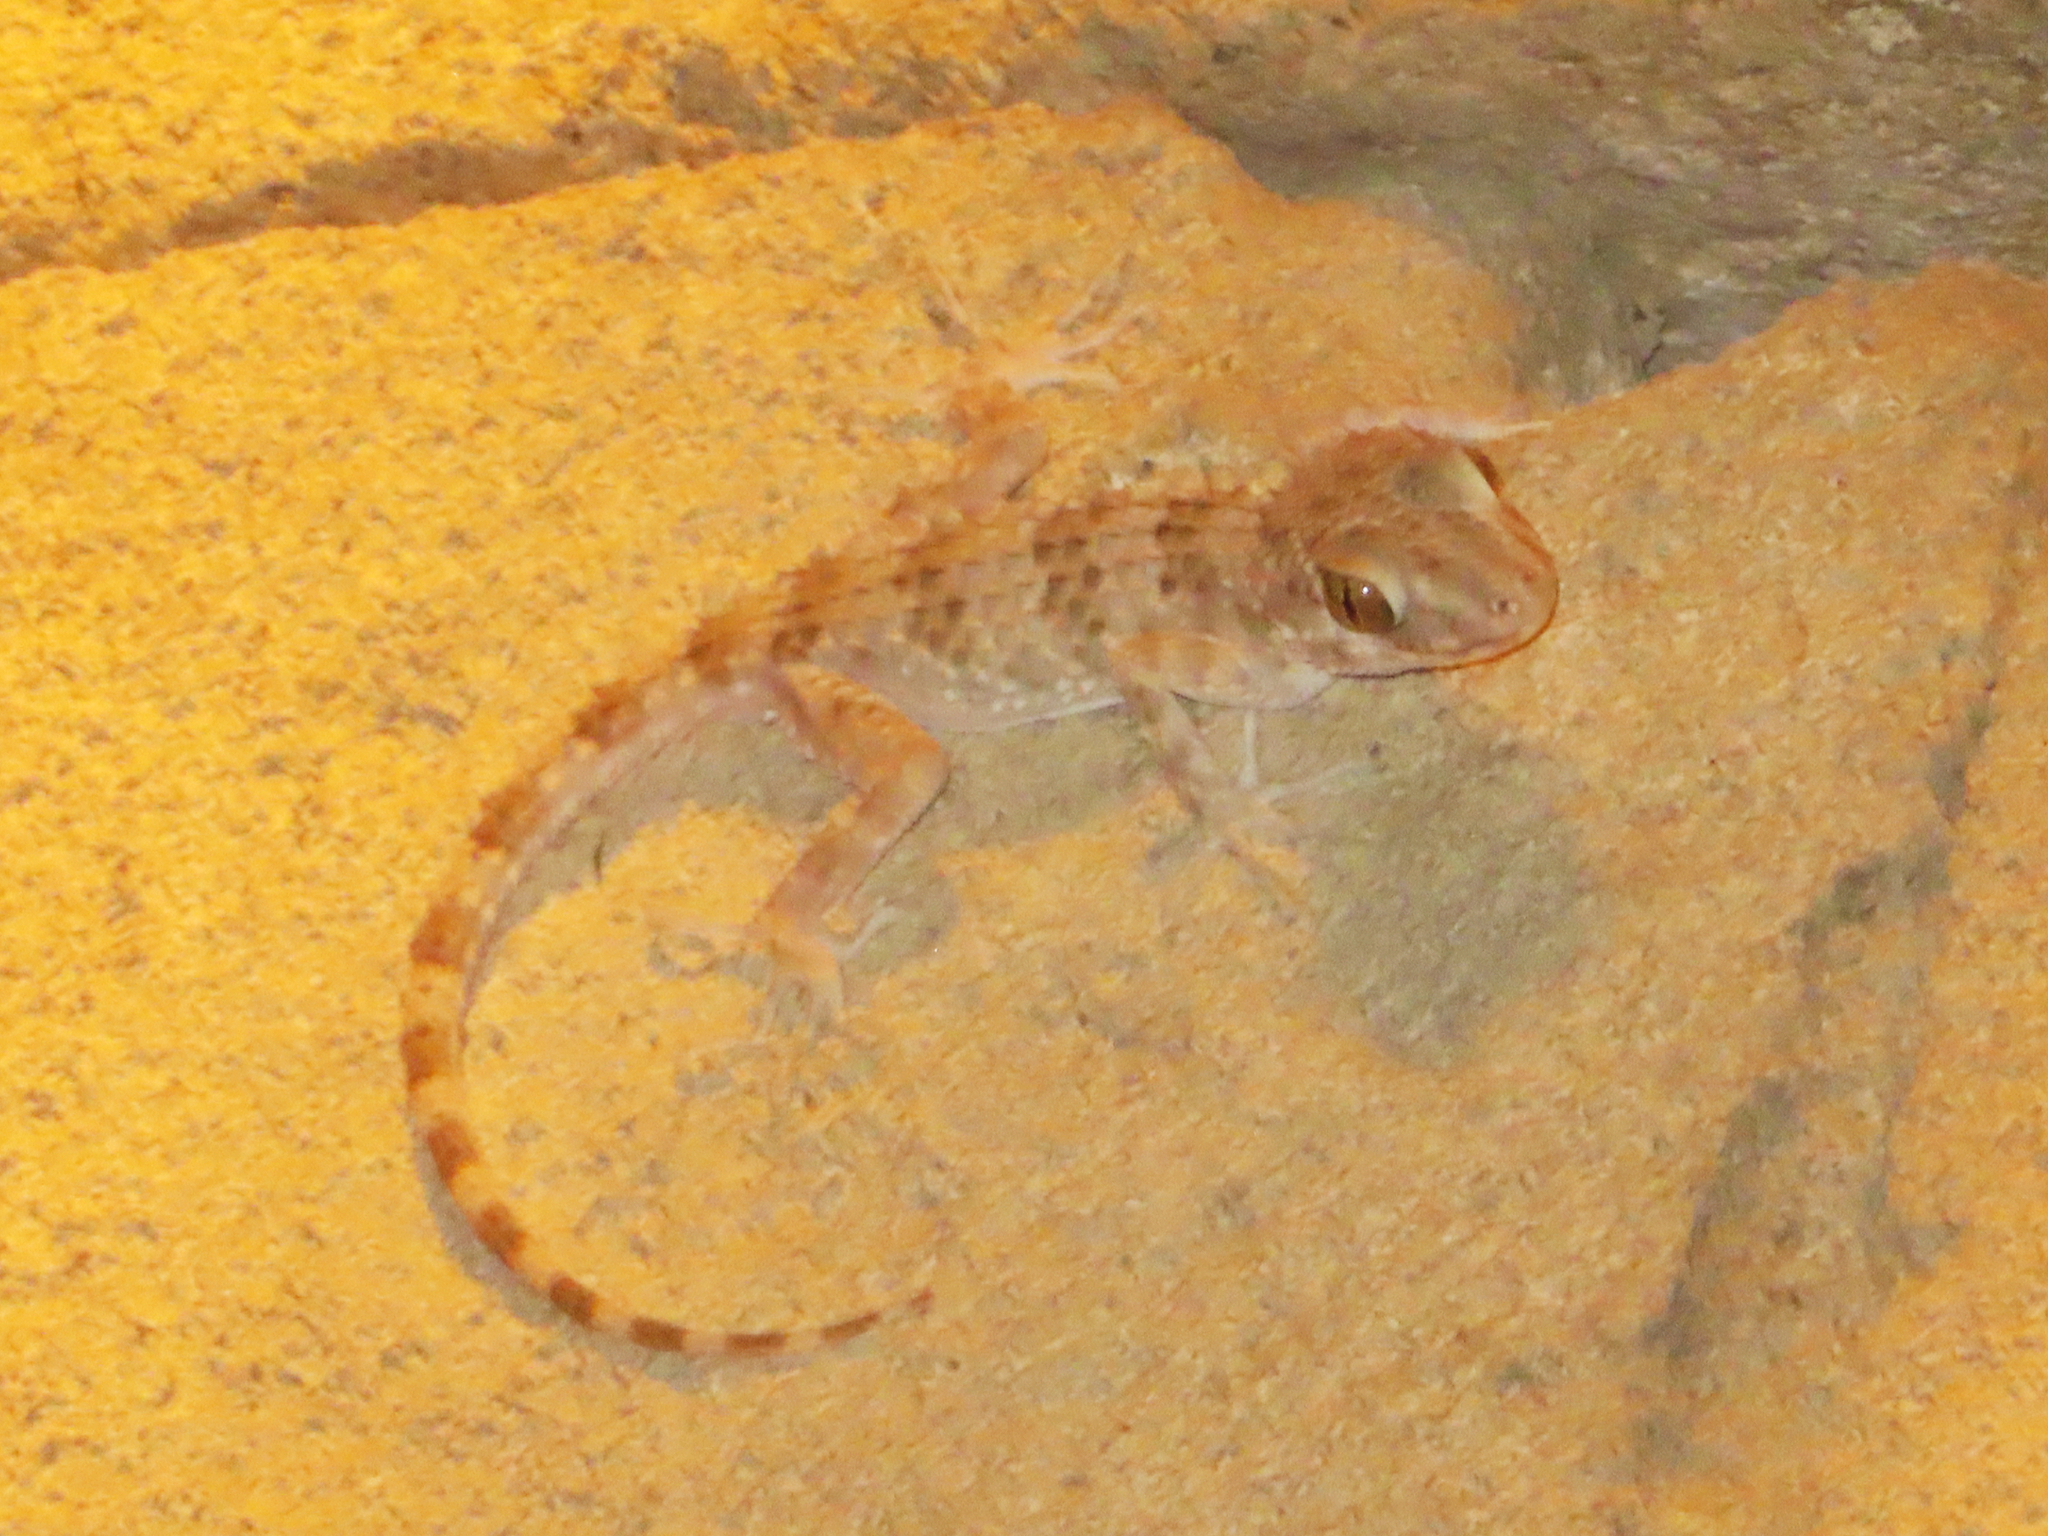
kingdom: Animalia
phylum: Chordata
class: Squamata
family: Gekkonidae
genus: Tenuidactylus
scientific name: Tenuidactylus caspius
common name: Caspian bent-toed gecko
